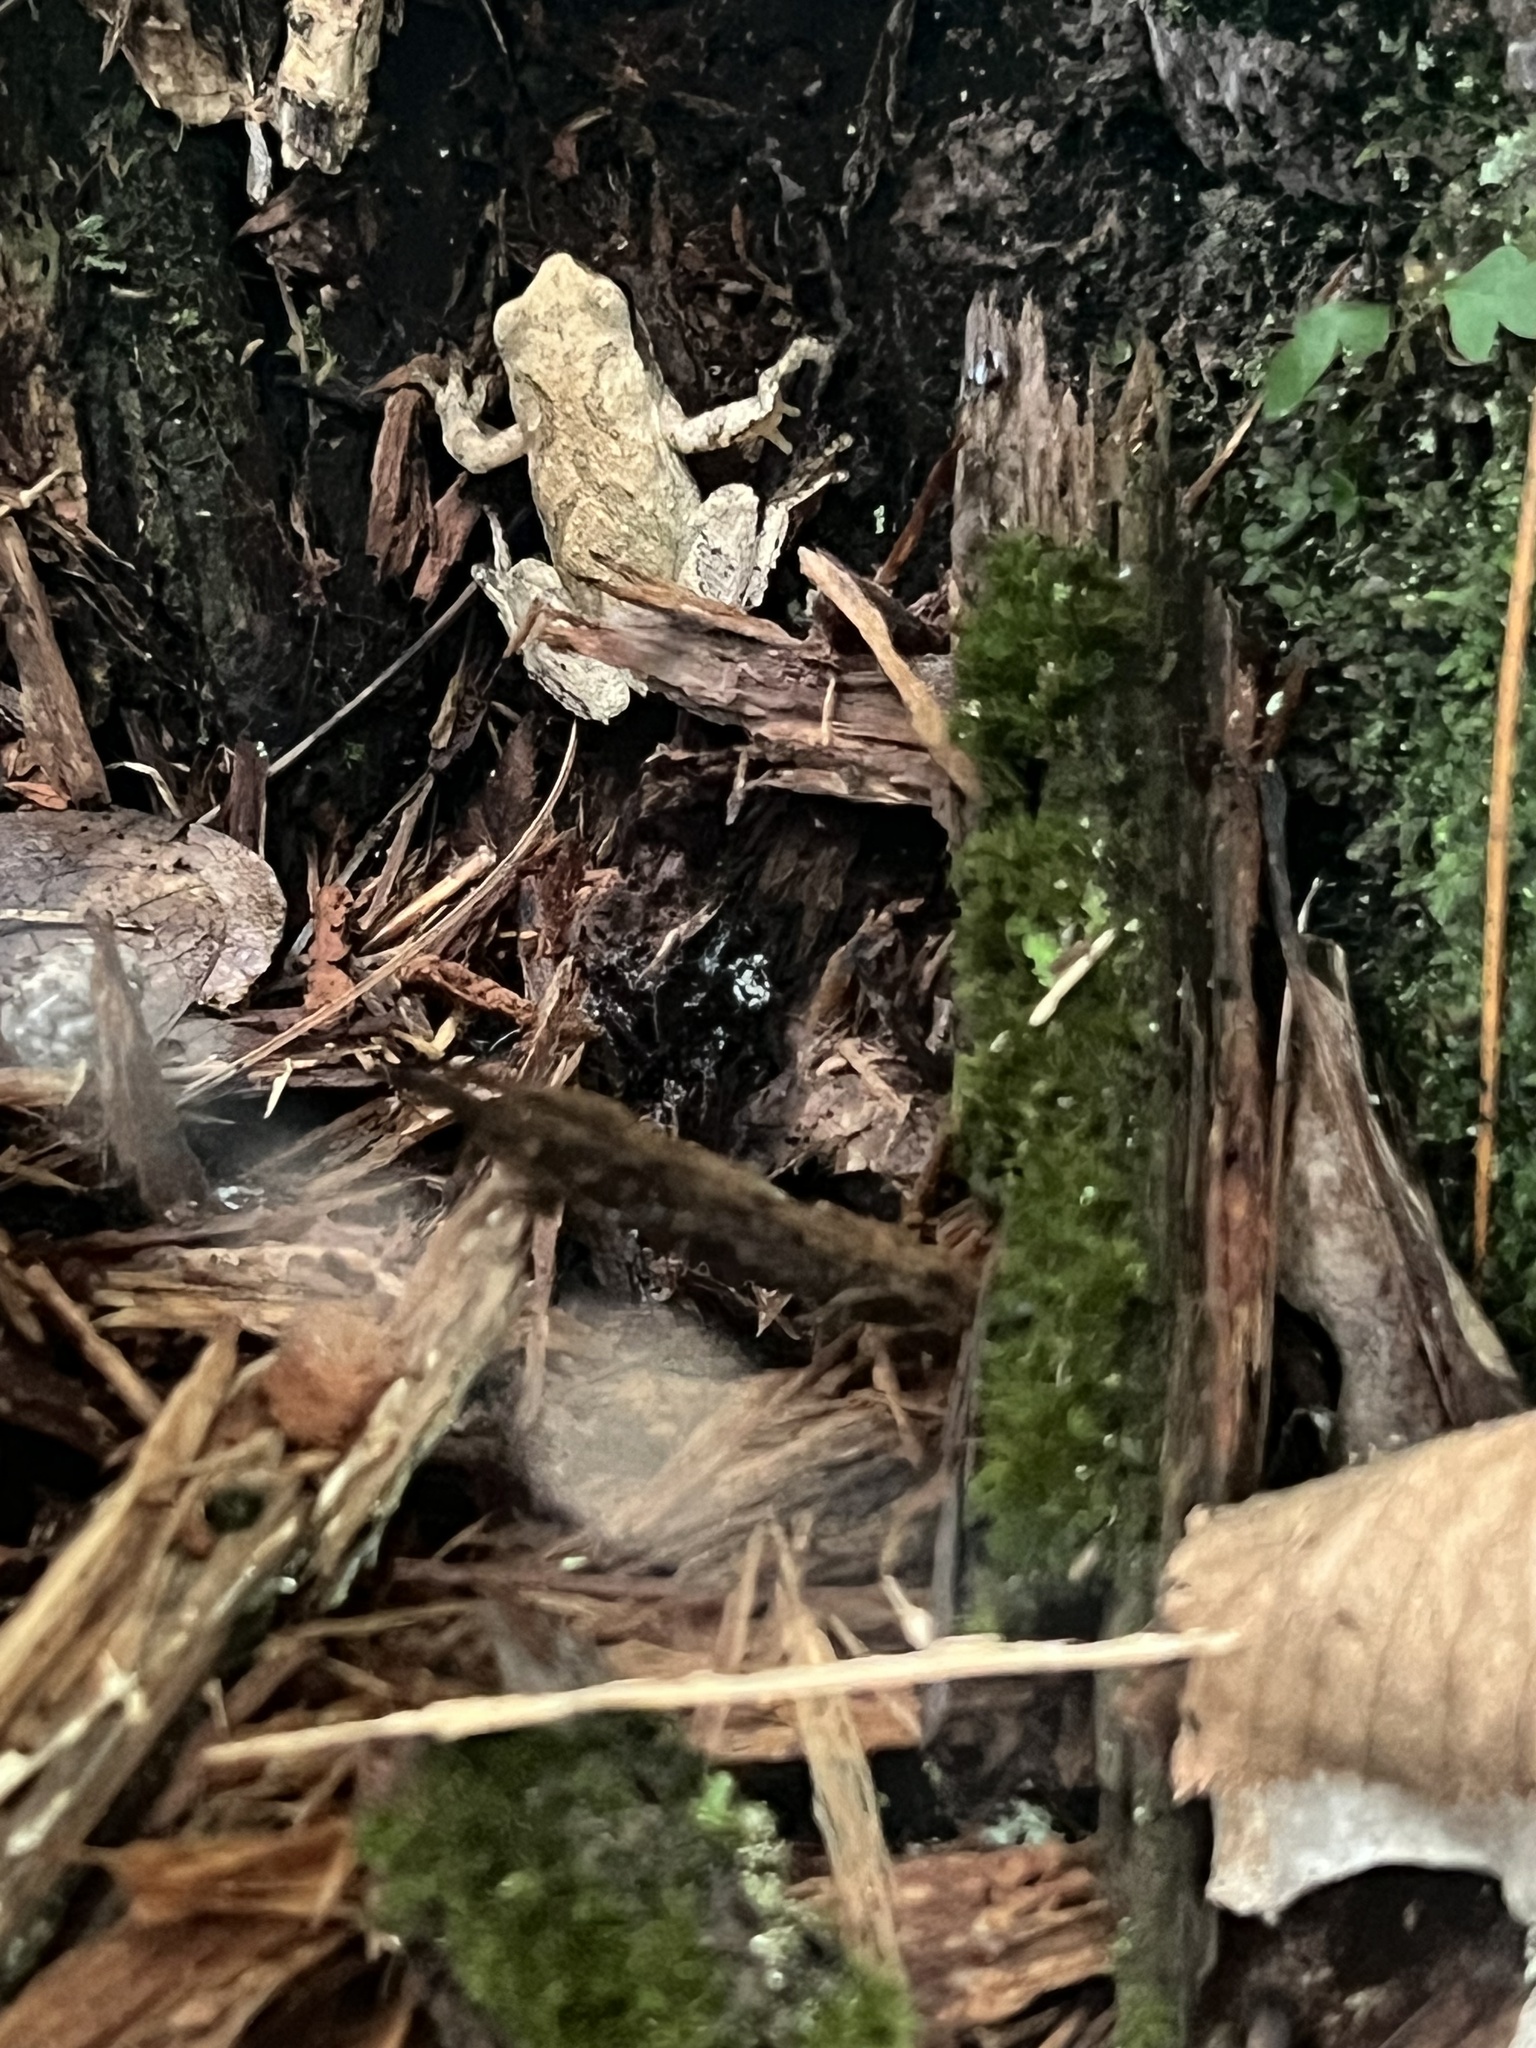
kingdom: Animalia
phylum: Chordata
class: Amphibia
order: Anura
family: Hylidae
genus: Pseudacris
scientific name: Pseudacris crucifer
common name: Spring peeper
